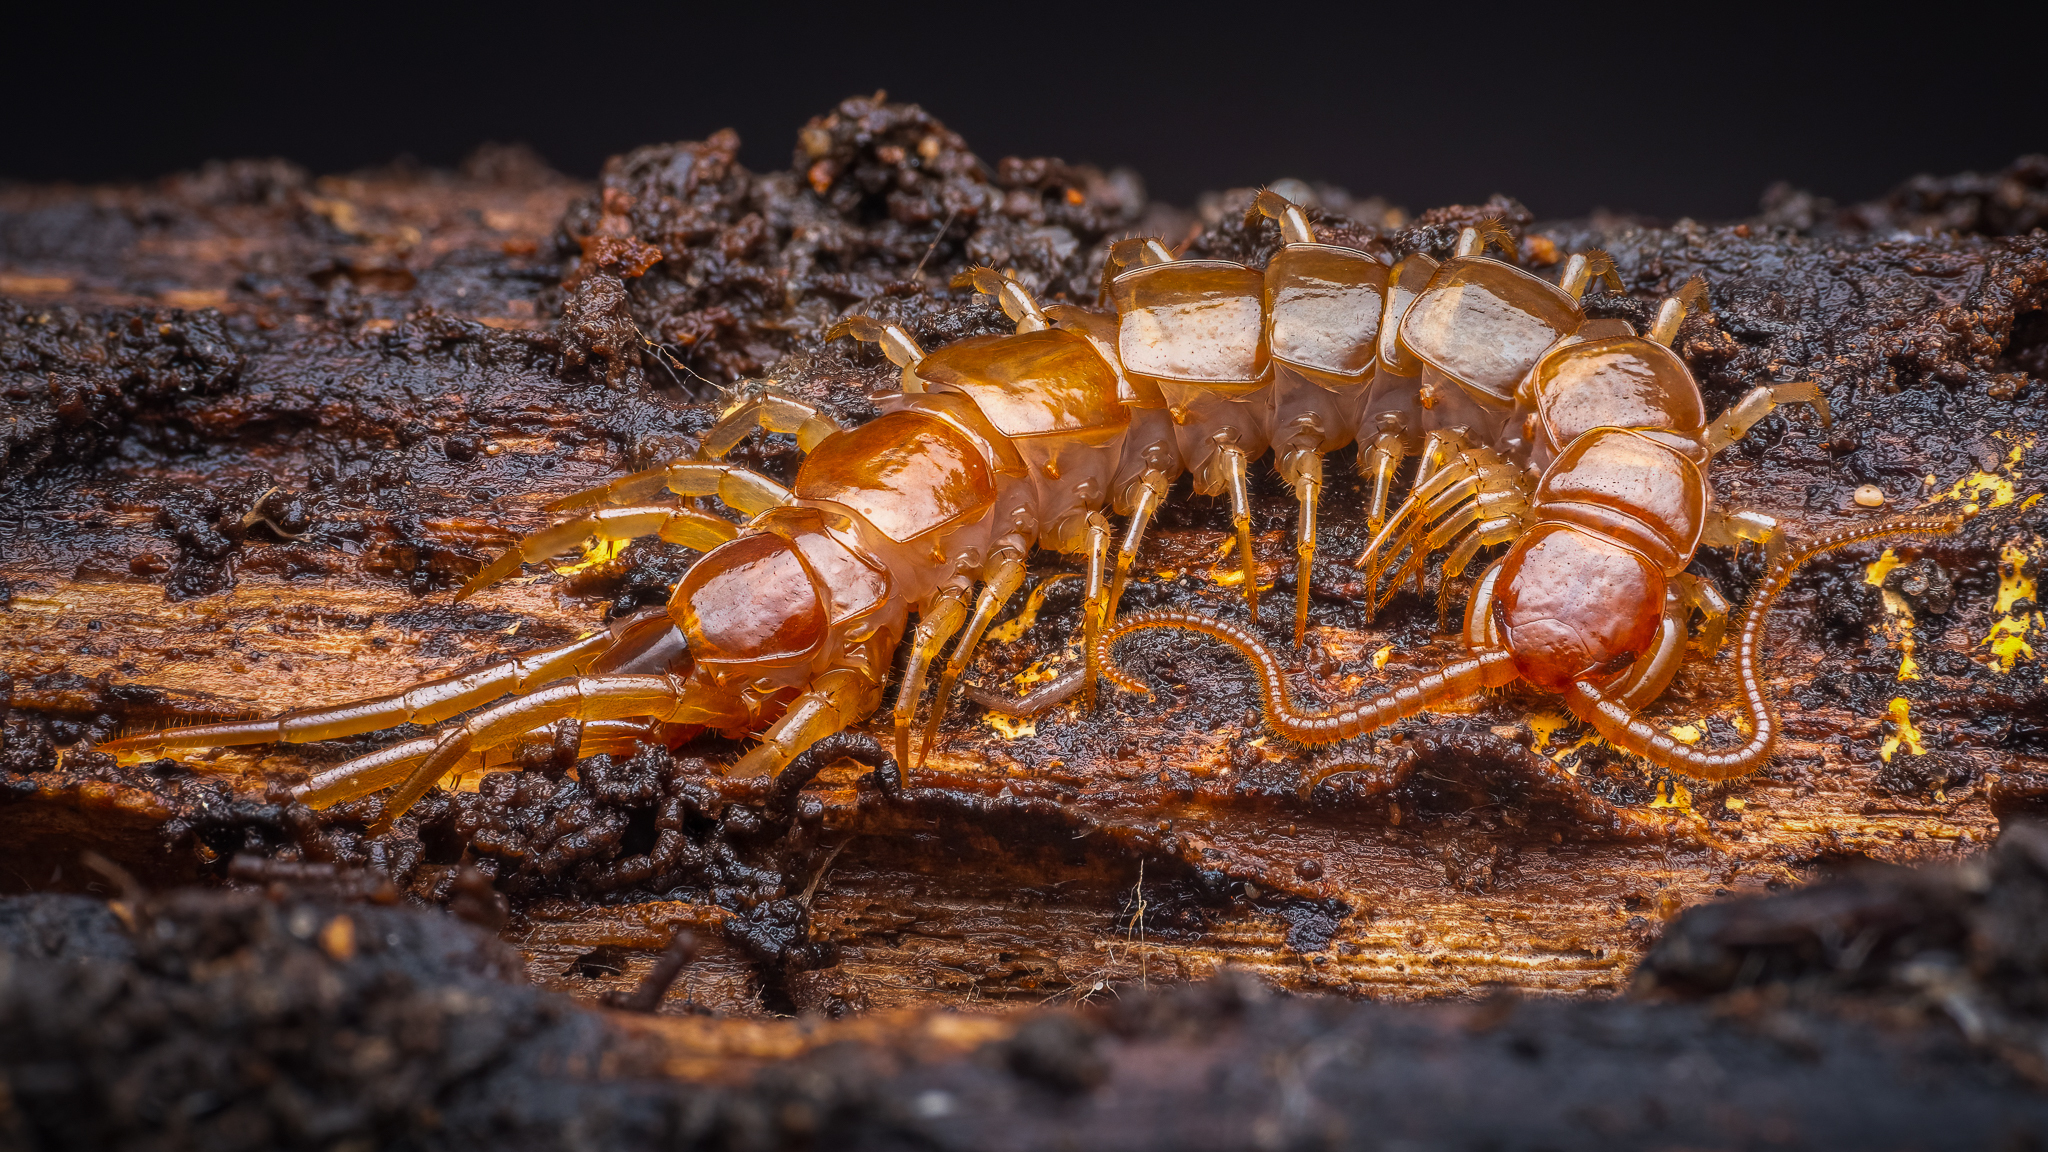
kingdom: Animalia
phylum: Arthropoda
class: Chilopoda
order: Lithobiomorpha
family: Lithobiidae
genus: Lithobius
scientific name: Lithobius forficatus
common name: Centipede
